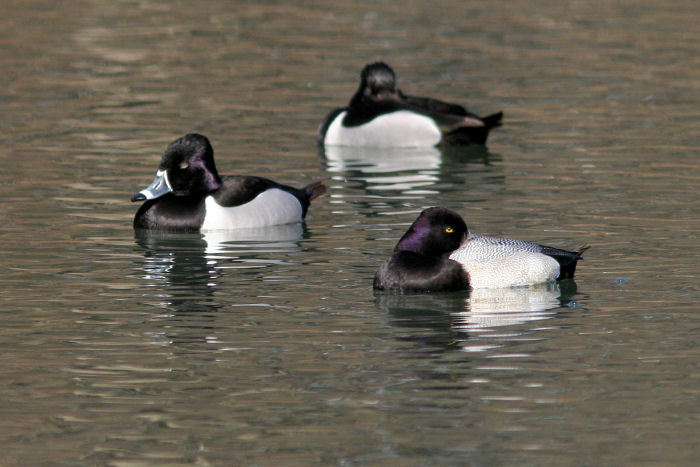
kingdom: Animalia
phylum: Chordata
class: Aves
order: Anseriformes
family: Anatidae
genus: Aythya
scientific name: Aythya affinis
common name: Lesser scaup
